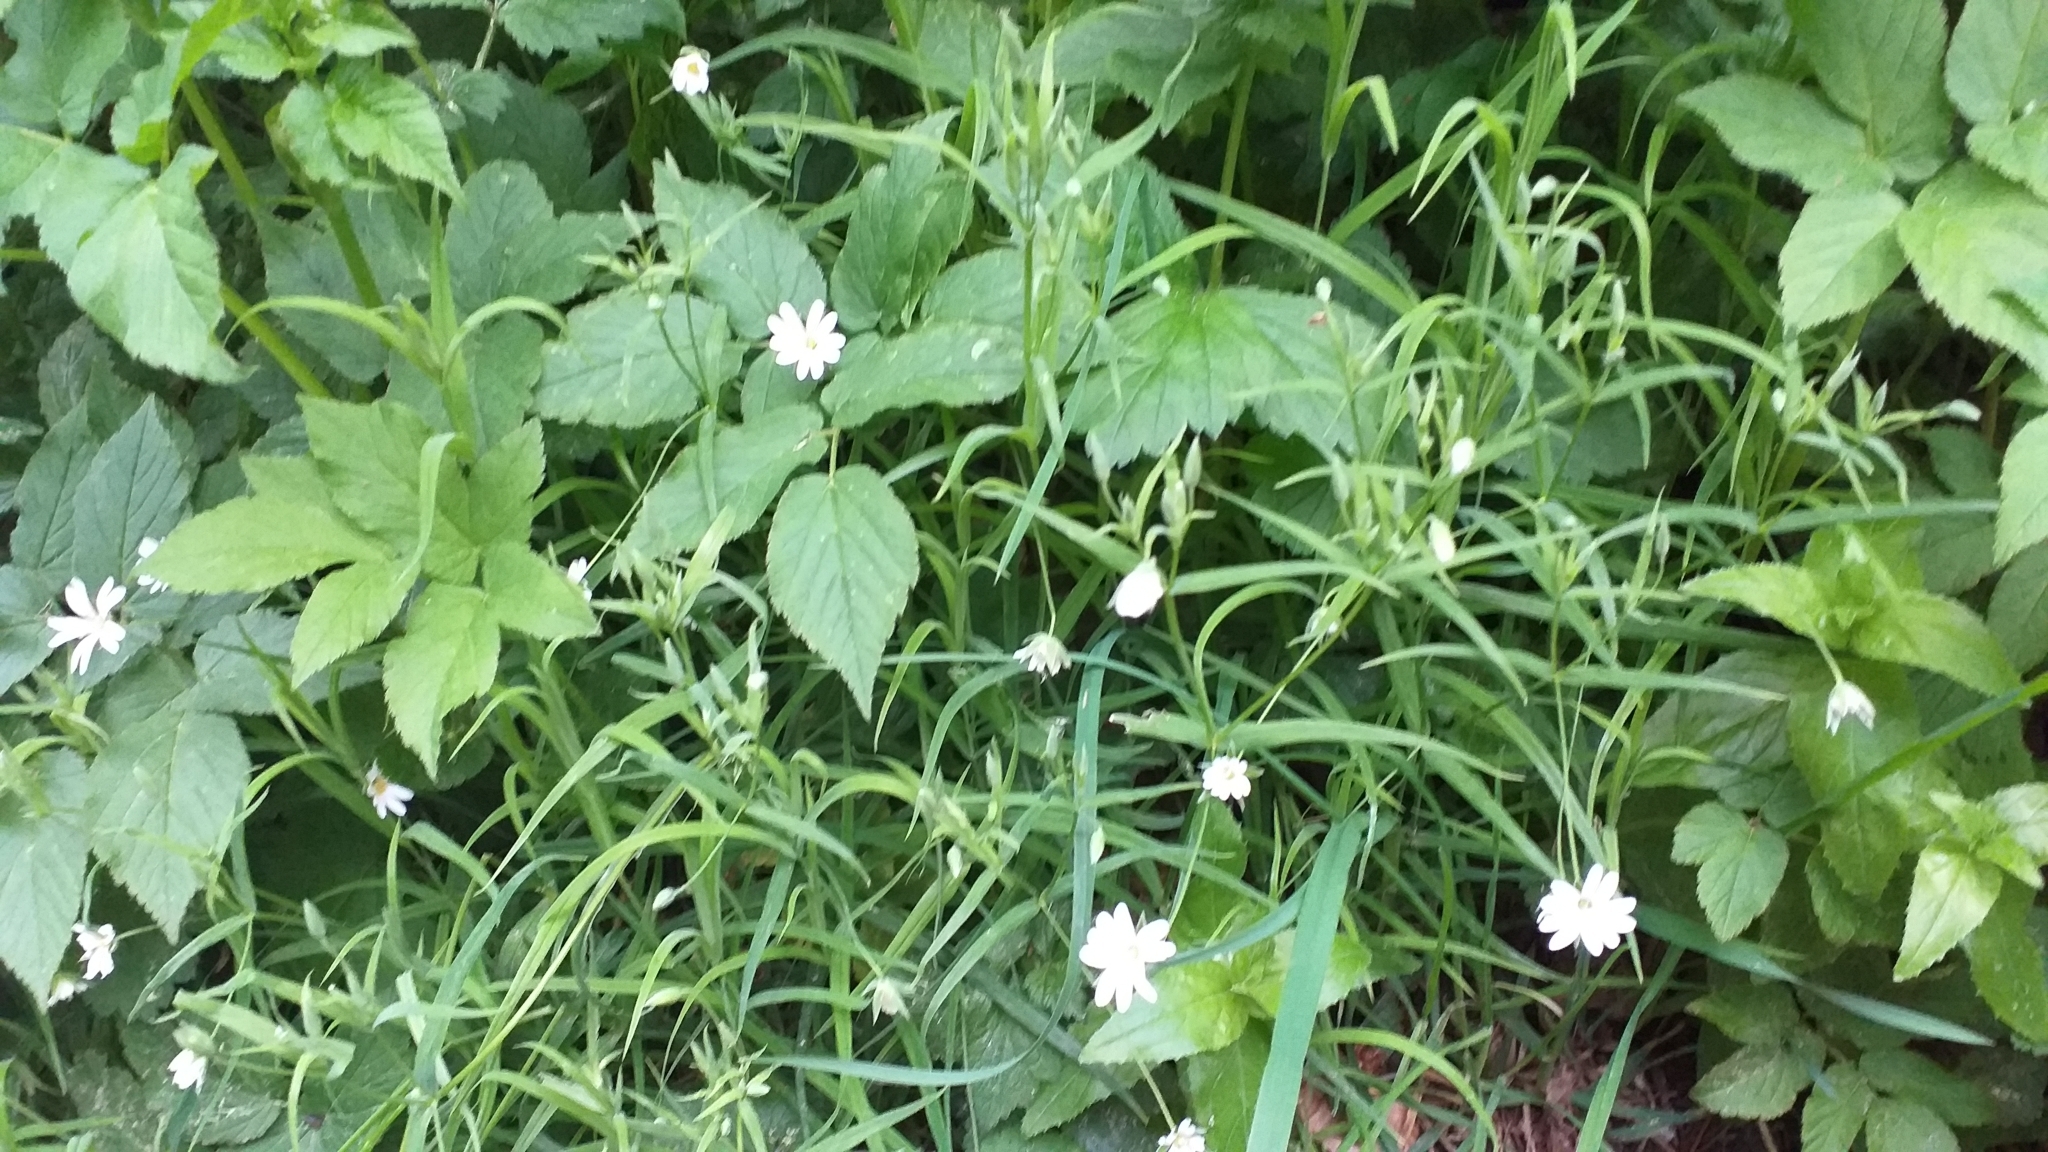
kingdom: Plantae
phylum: Tracheophyta
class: Magnoliopsida
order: Caryophyllales
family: Caryophyllaceae
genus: Rabelera
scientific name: Rabelera holostea
